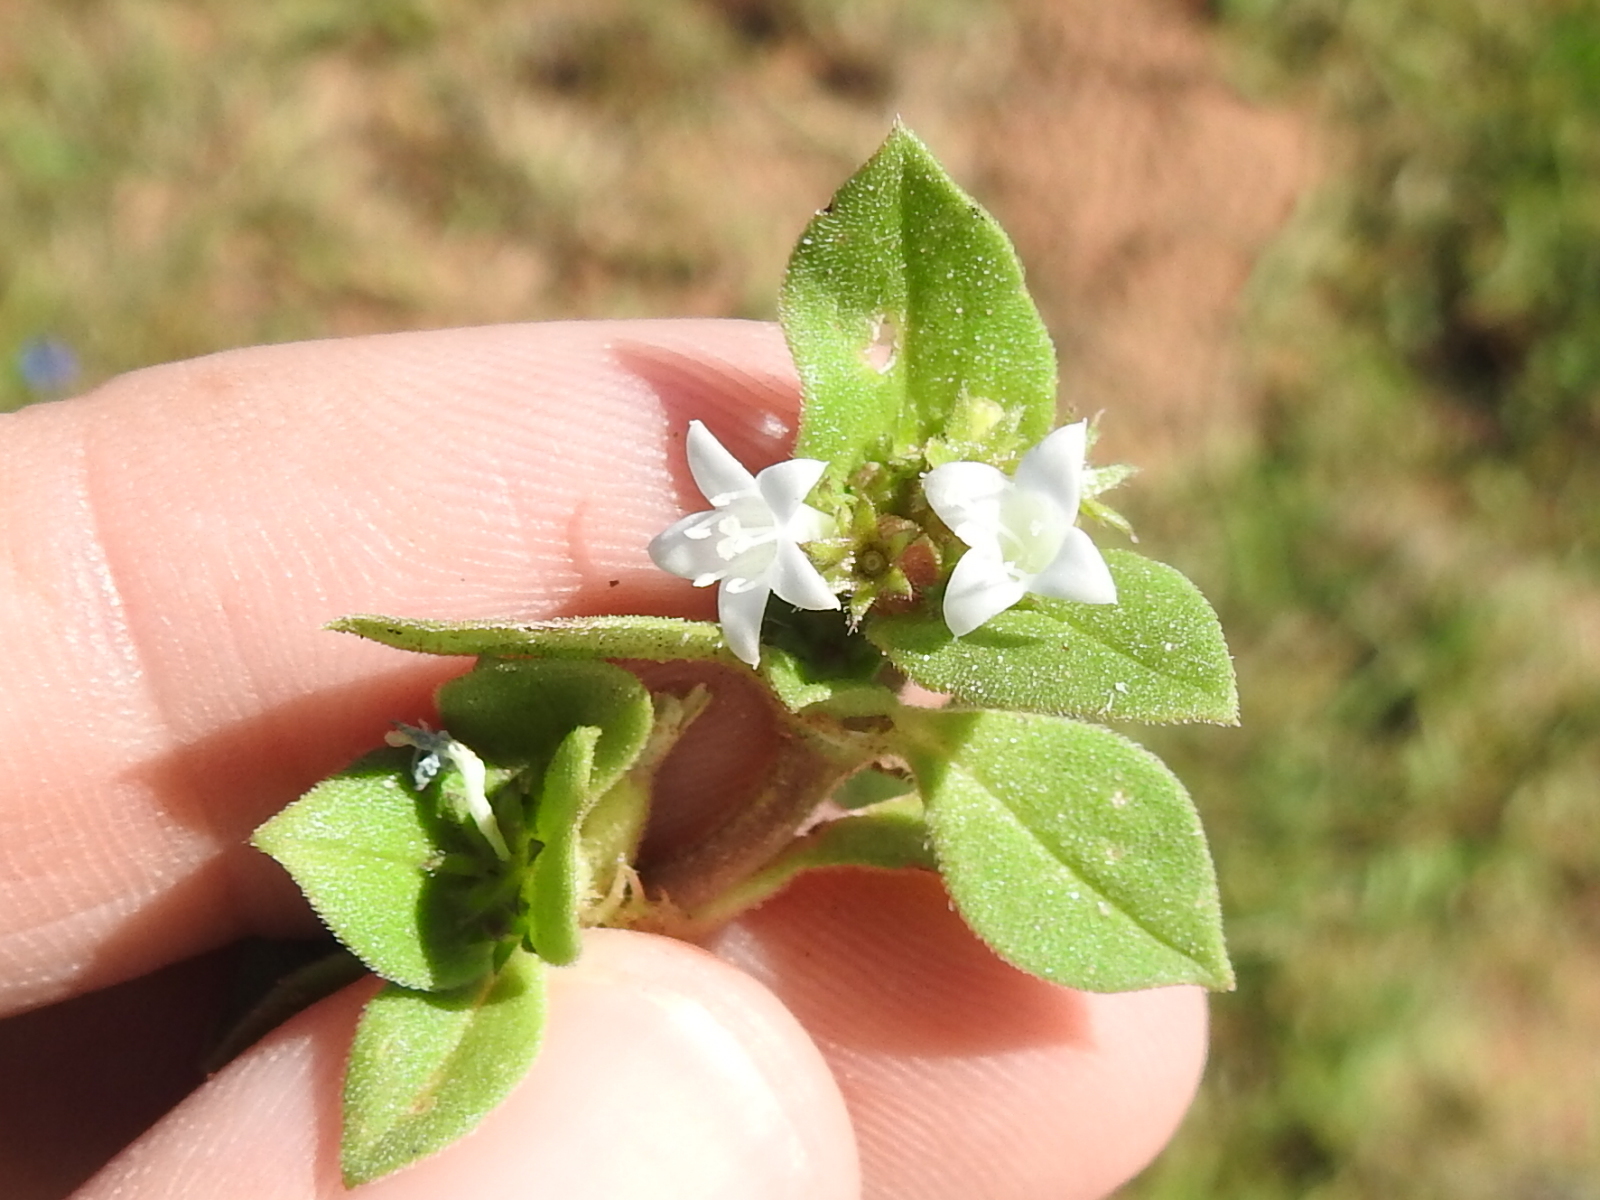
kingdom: Plantae
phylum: Tracheophyta
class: Magnoliopsida
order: Gentianales
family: Rubiaceae
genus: Richardia
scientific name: Richardia brasiliensis
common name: Tropical mexican clover
